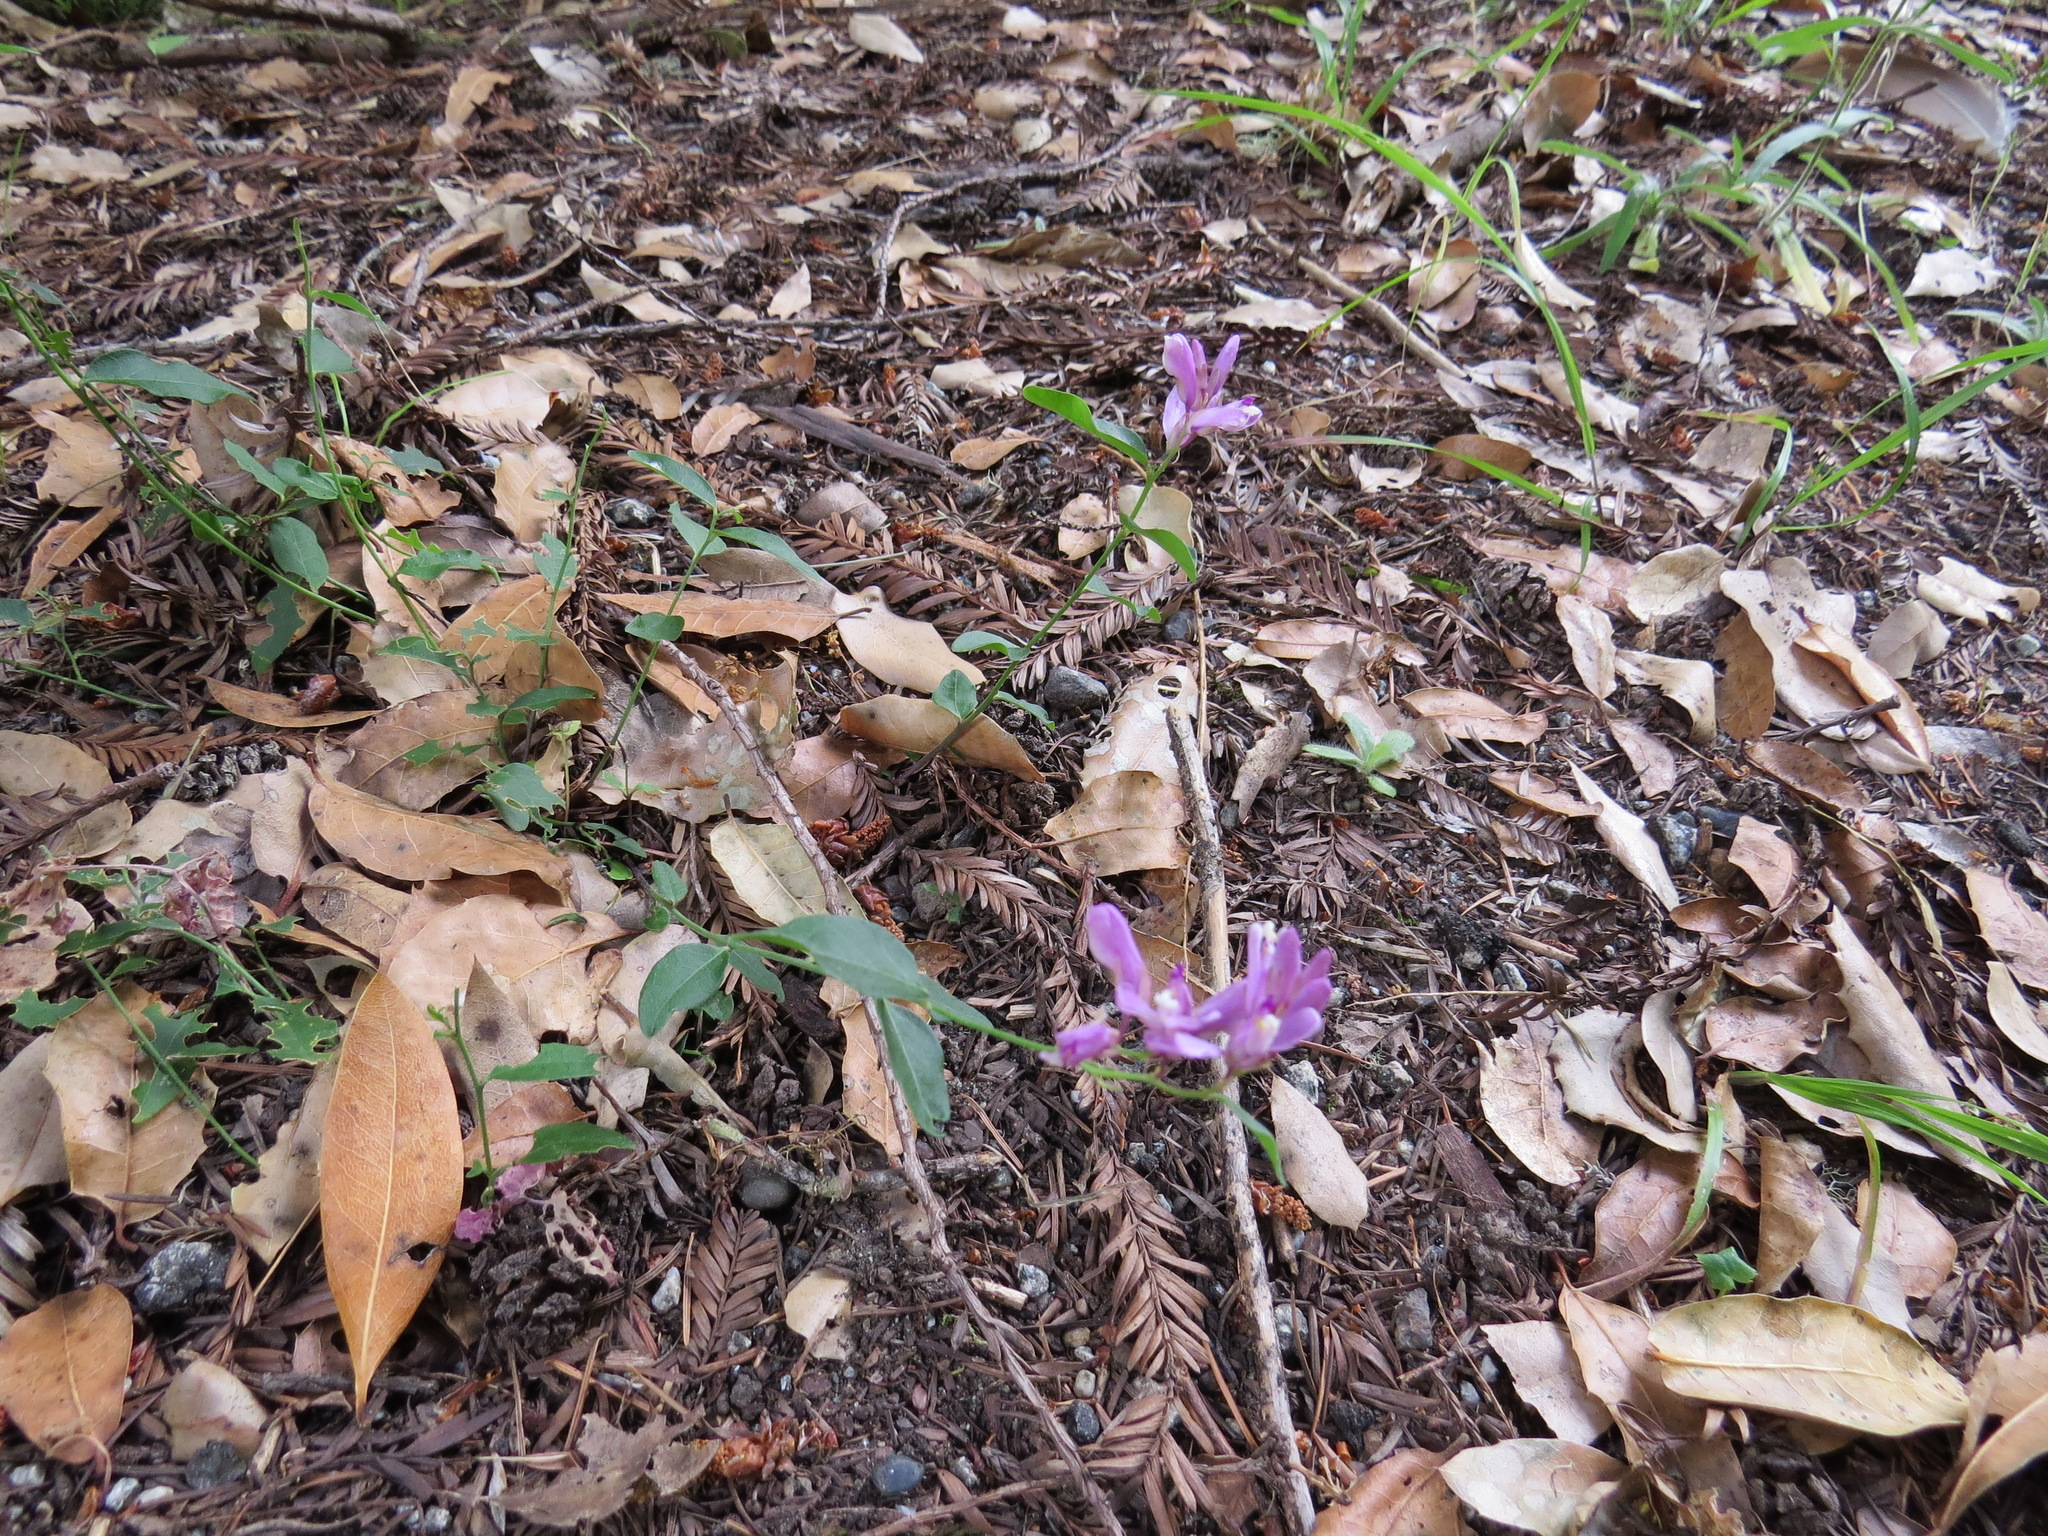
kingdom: Plantae
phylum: Tracheophyta
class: Magnoliopsida
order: Fabales
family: Polygalaceae
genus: Rhinotropis
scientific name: Rhinotropis californica
